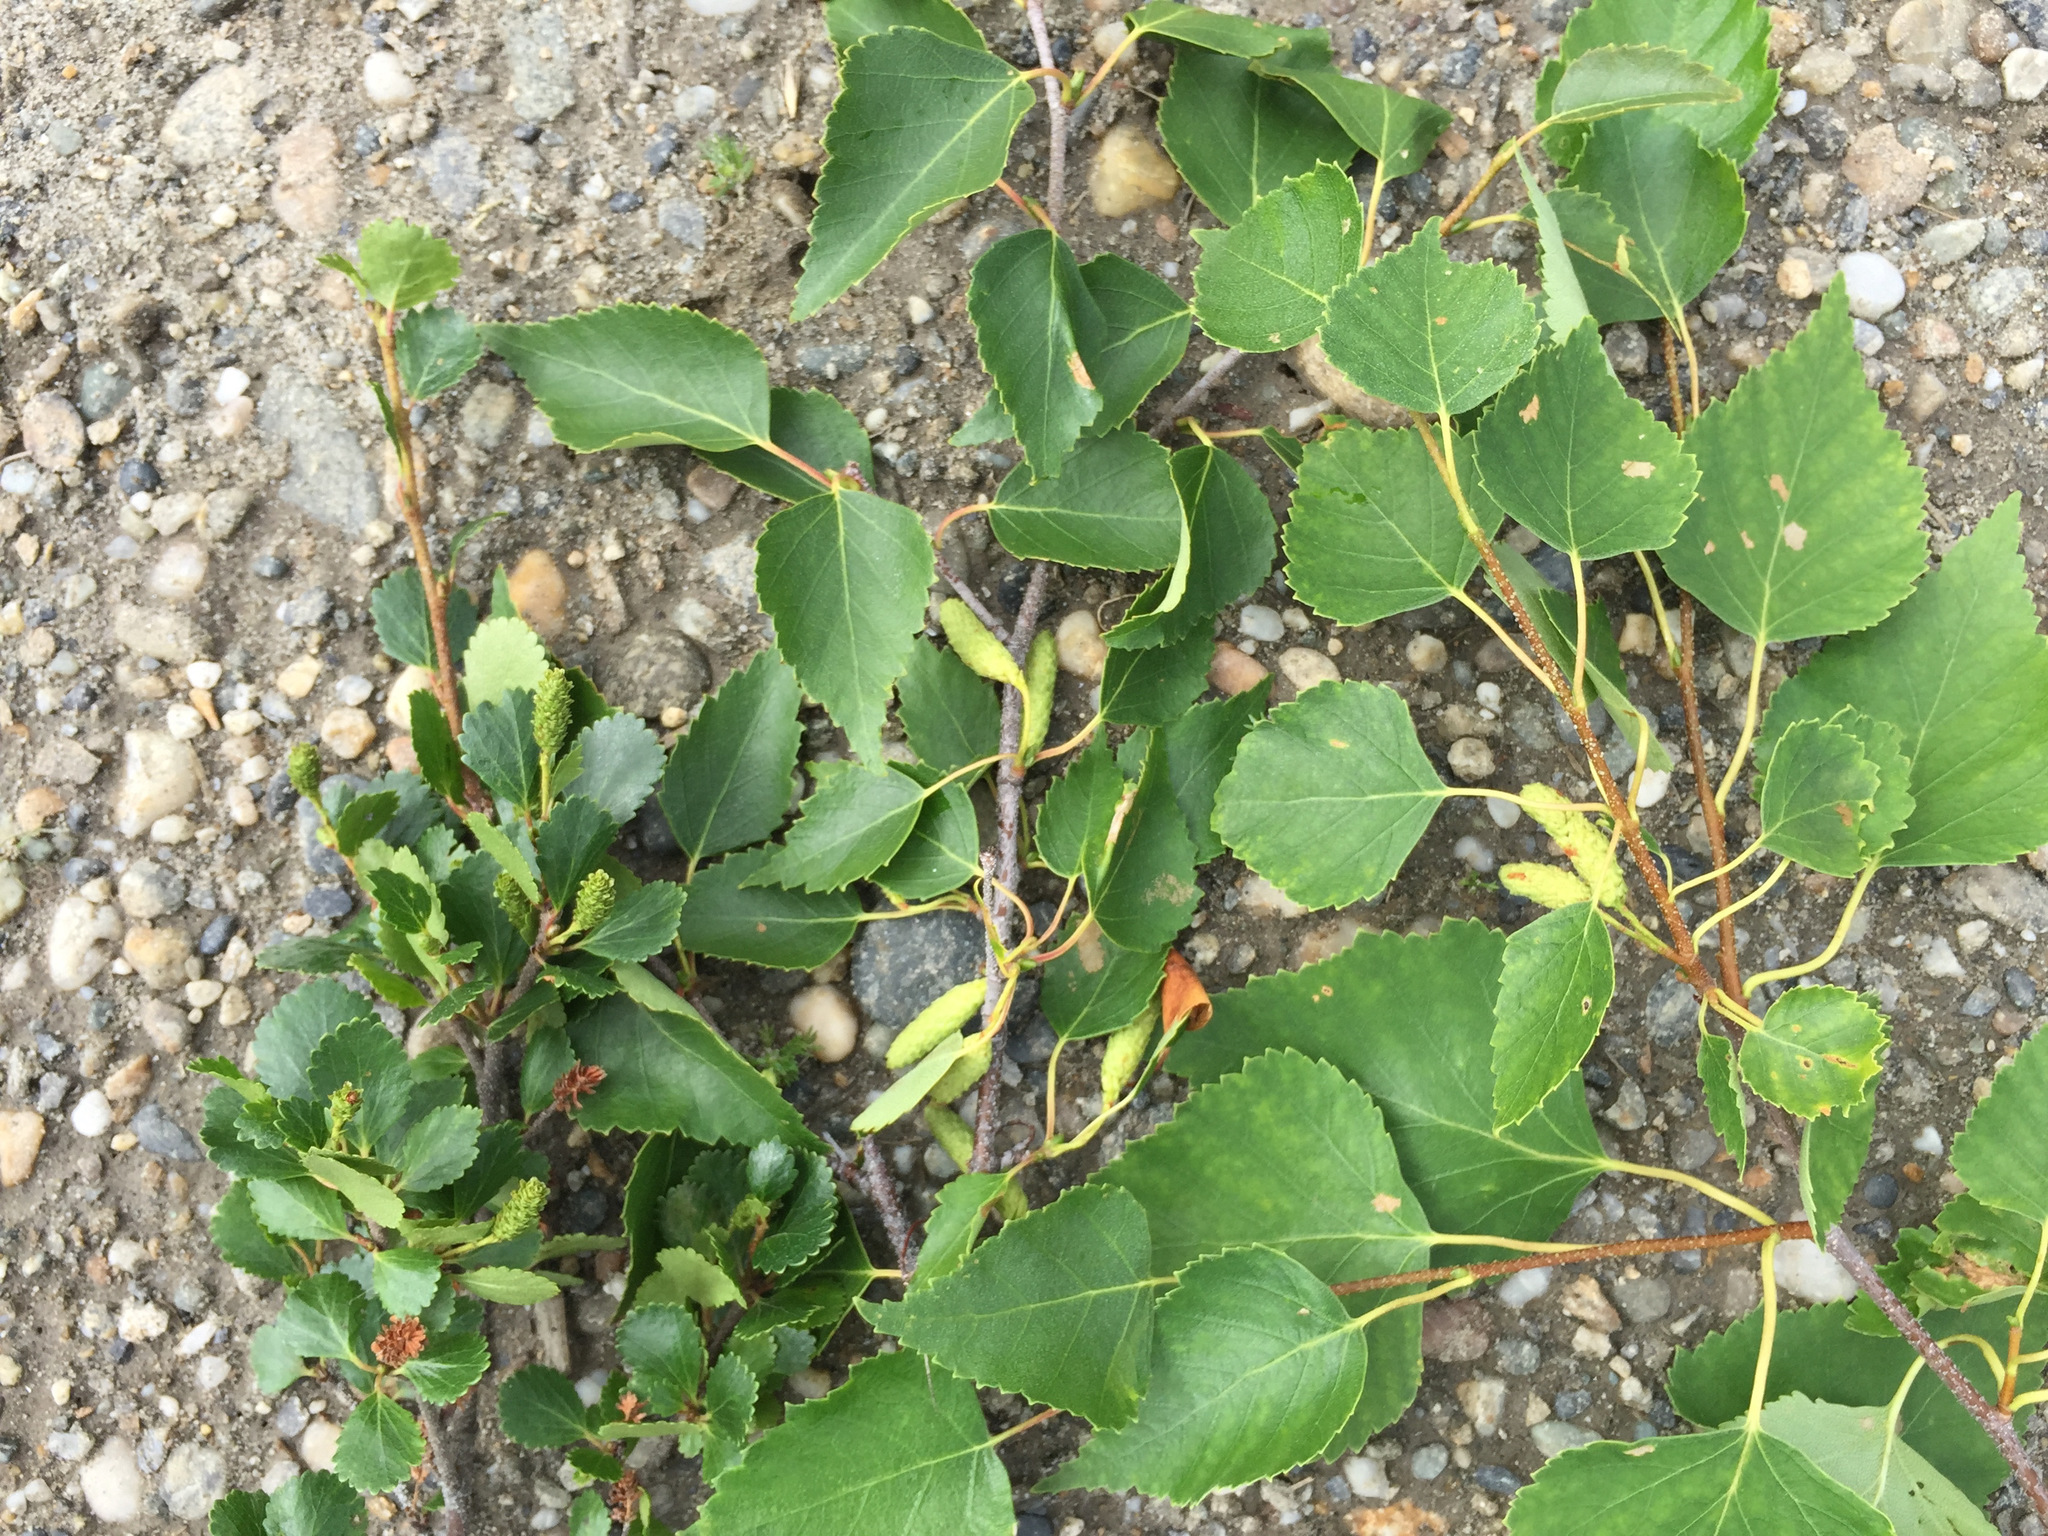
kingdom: Plantae
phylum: Tracheophyta
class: Magnoliopsida
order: Fagales
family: Betulaceae
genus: Betula
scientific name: Betula glandulosa
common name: Dwarf birch
